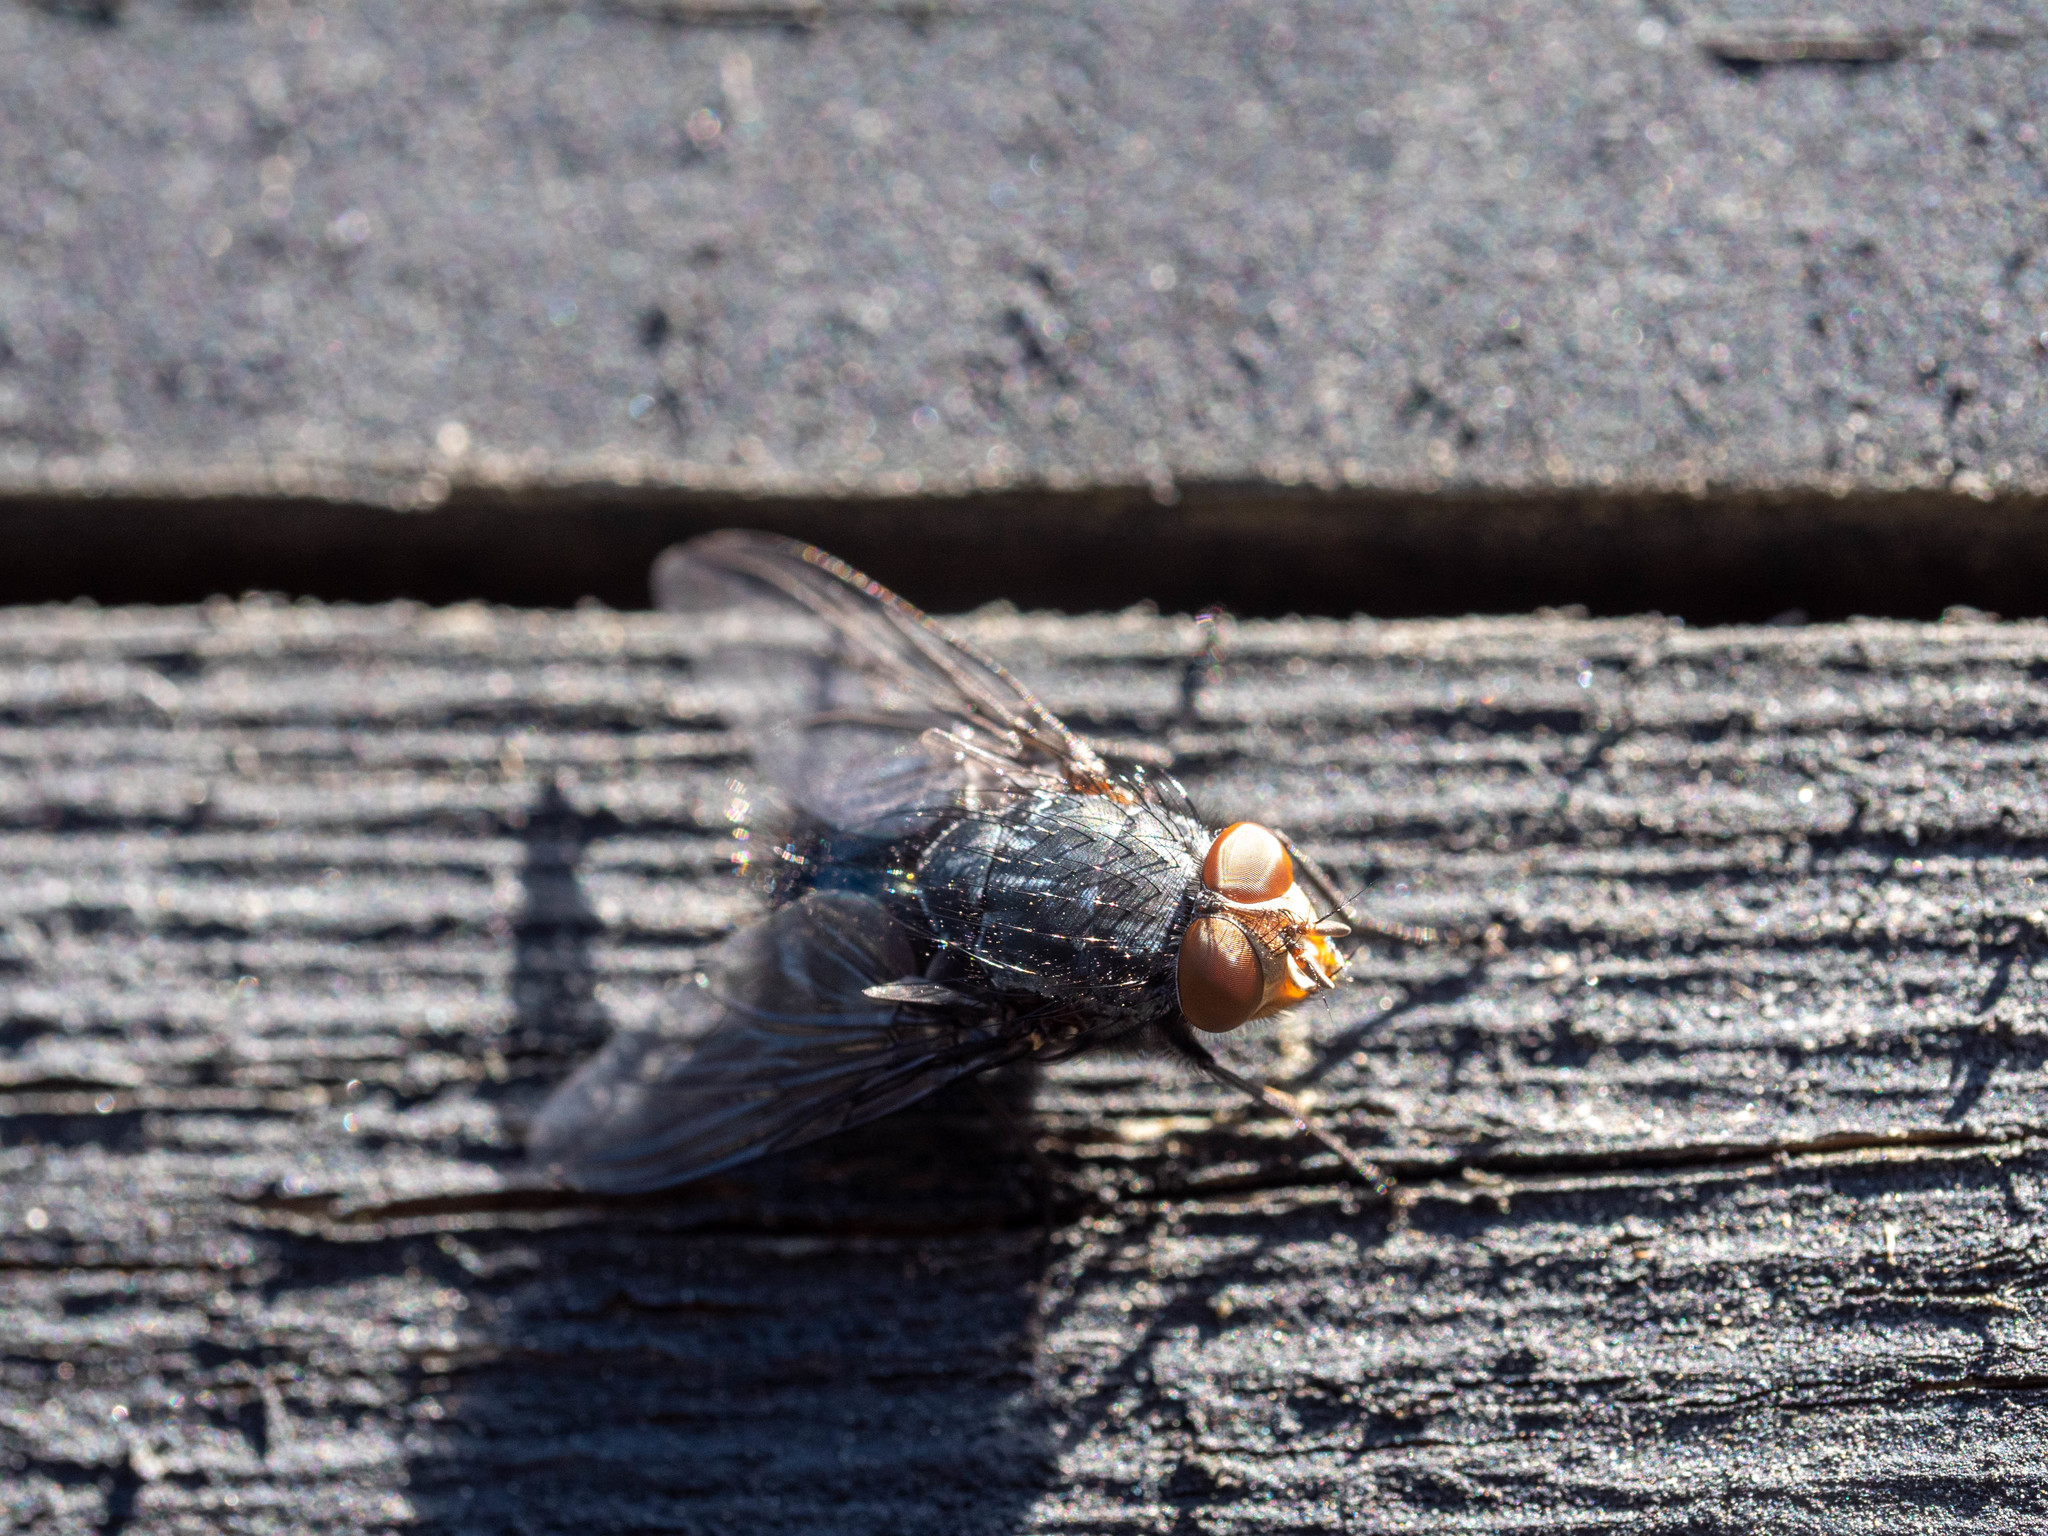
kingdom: Animalia
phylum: Arthropoda
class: Insecta
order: Diptera
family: Calliphoridae
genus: Calliphora
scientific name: Calliphora vicina
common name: Common blow flie
